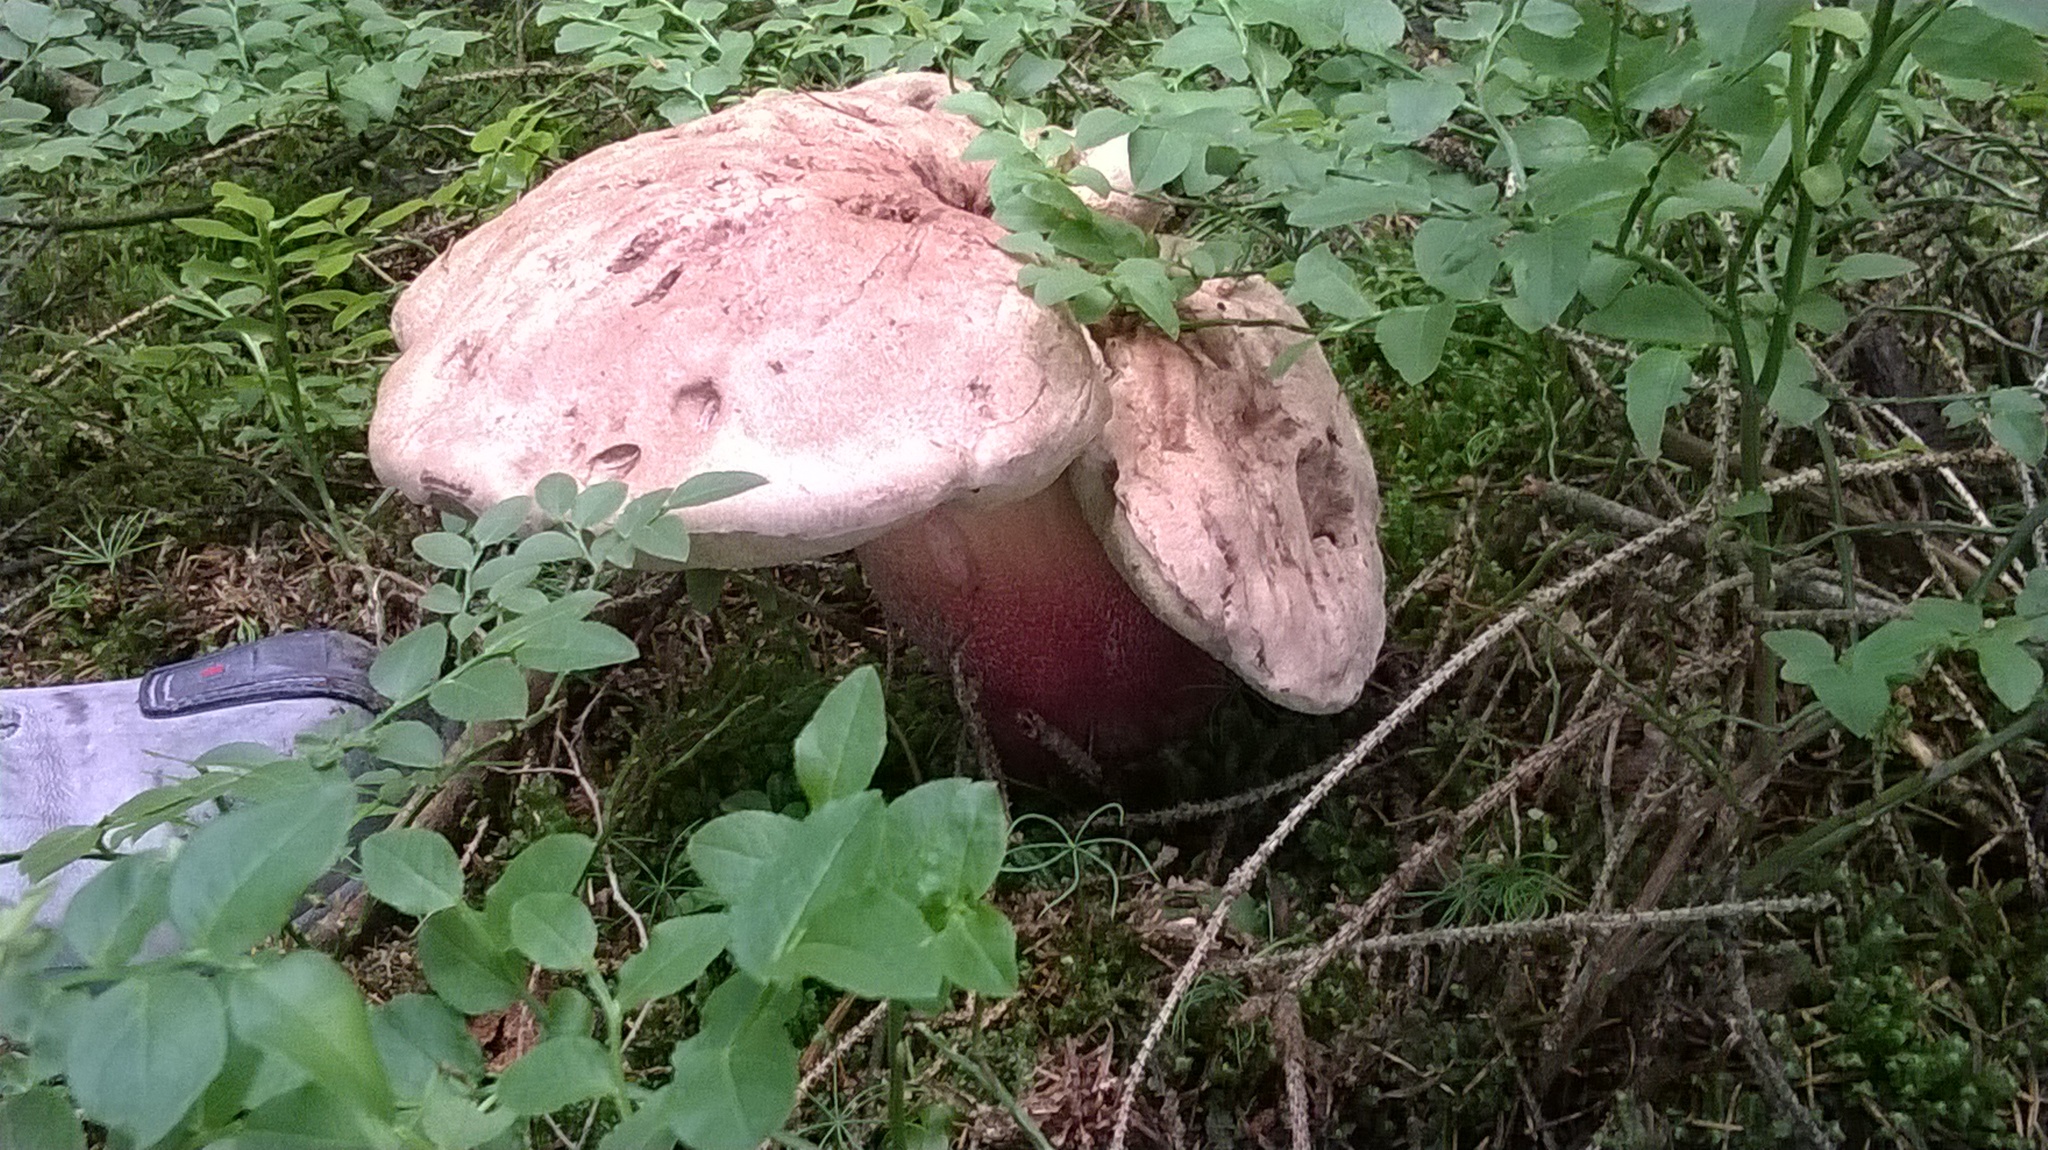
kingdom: Fungi
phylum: Basidiomycota
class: Agaricomycetes
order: Boletales
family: Boletaceae
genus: Caloboletus
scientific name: Caloboletus calopus
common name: Bitter beech bolete
